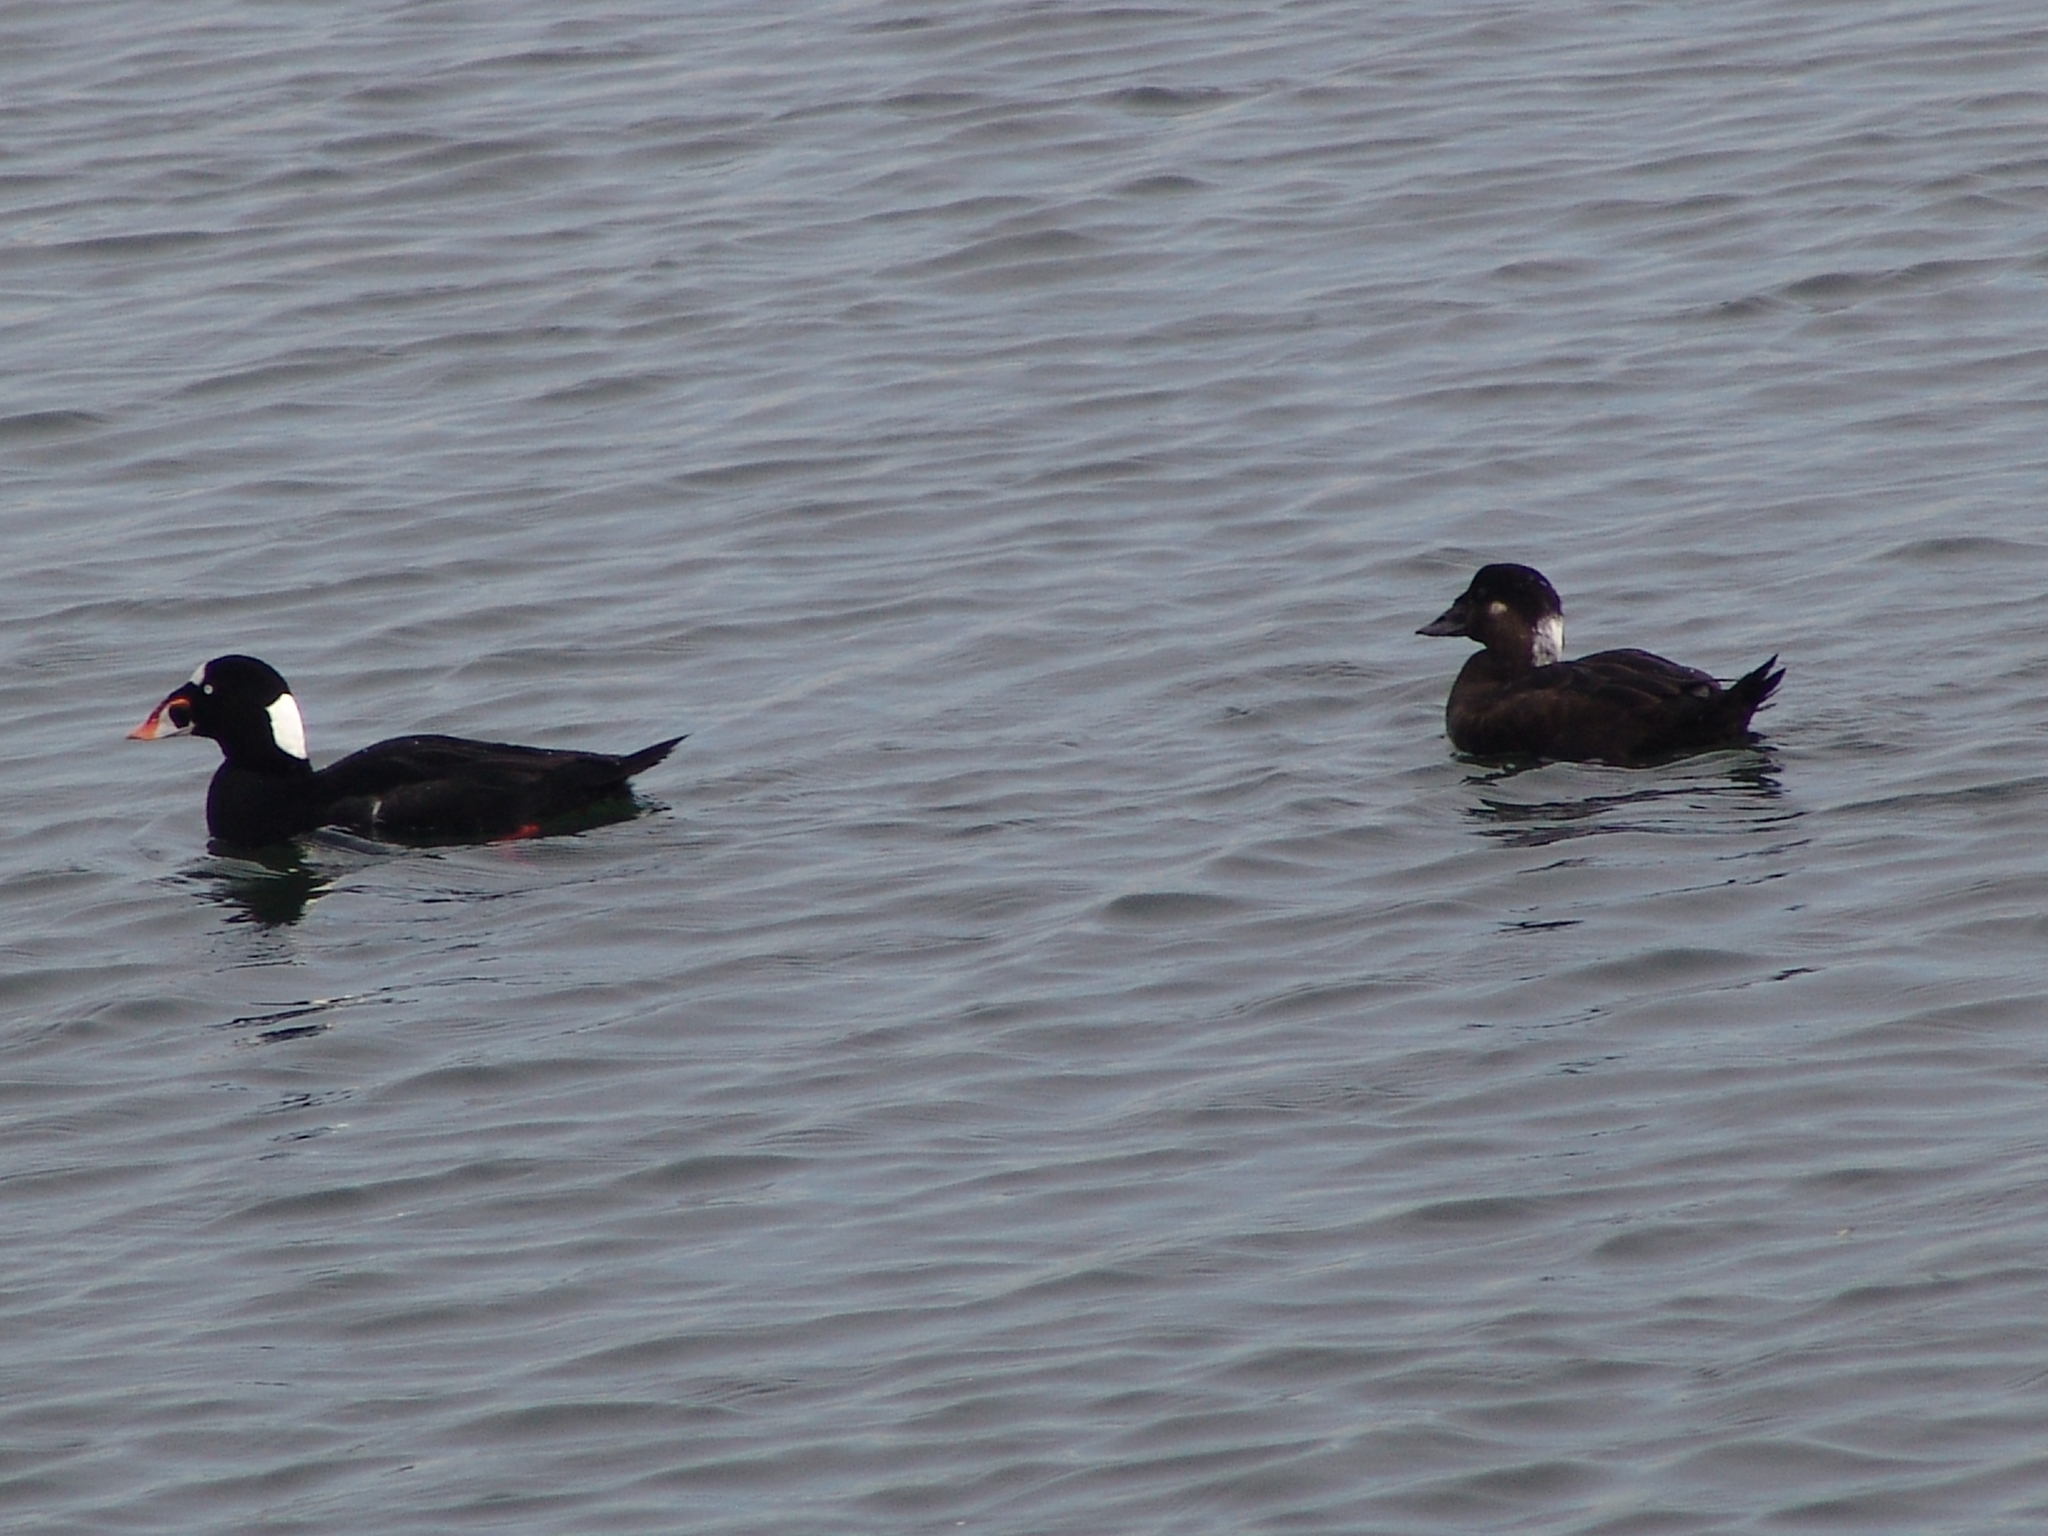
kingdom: Animalia
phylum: Chordata
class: Aves
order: Anseriformes
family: Anatidae
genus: Melanitta
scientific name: Melanitta perspicillata
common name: Surf scoter
